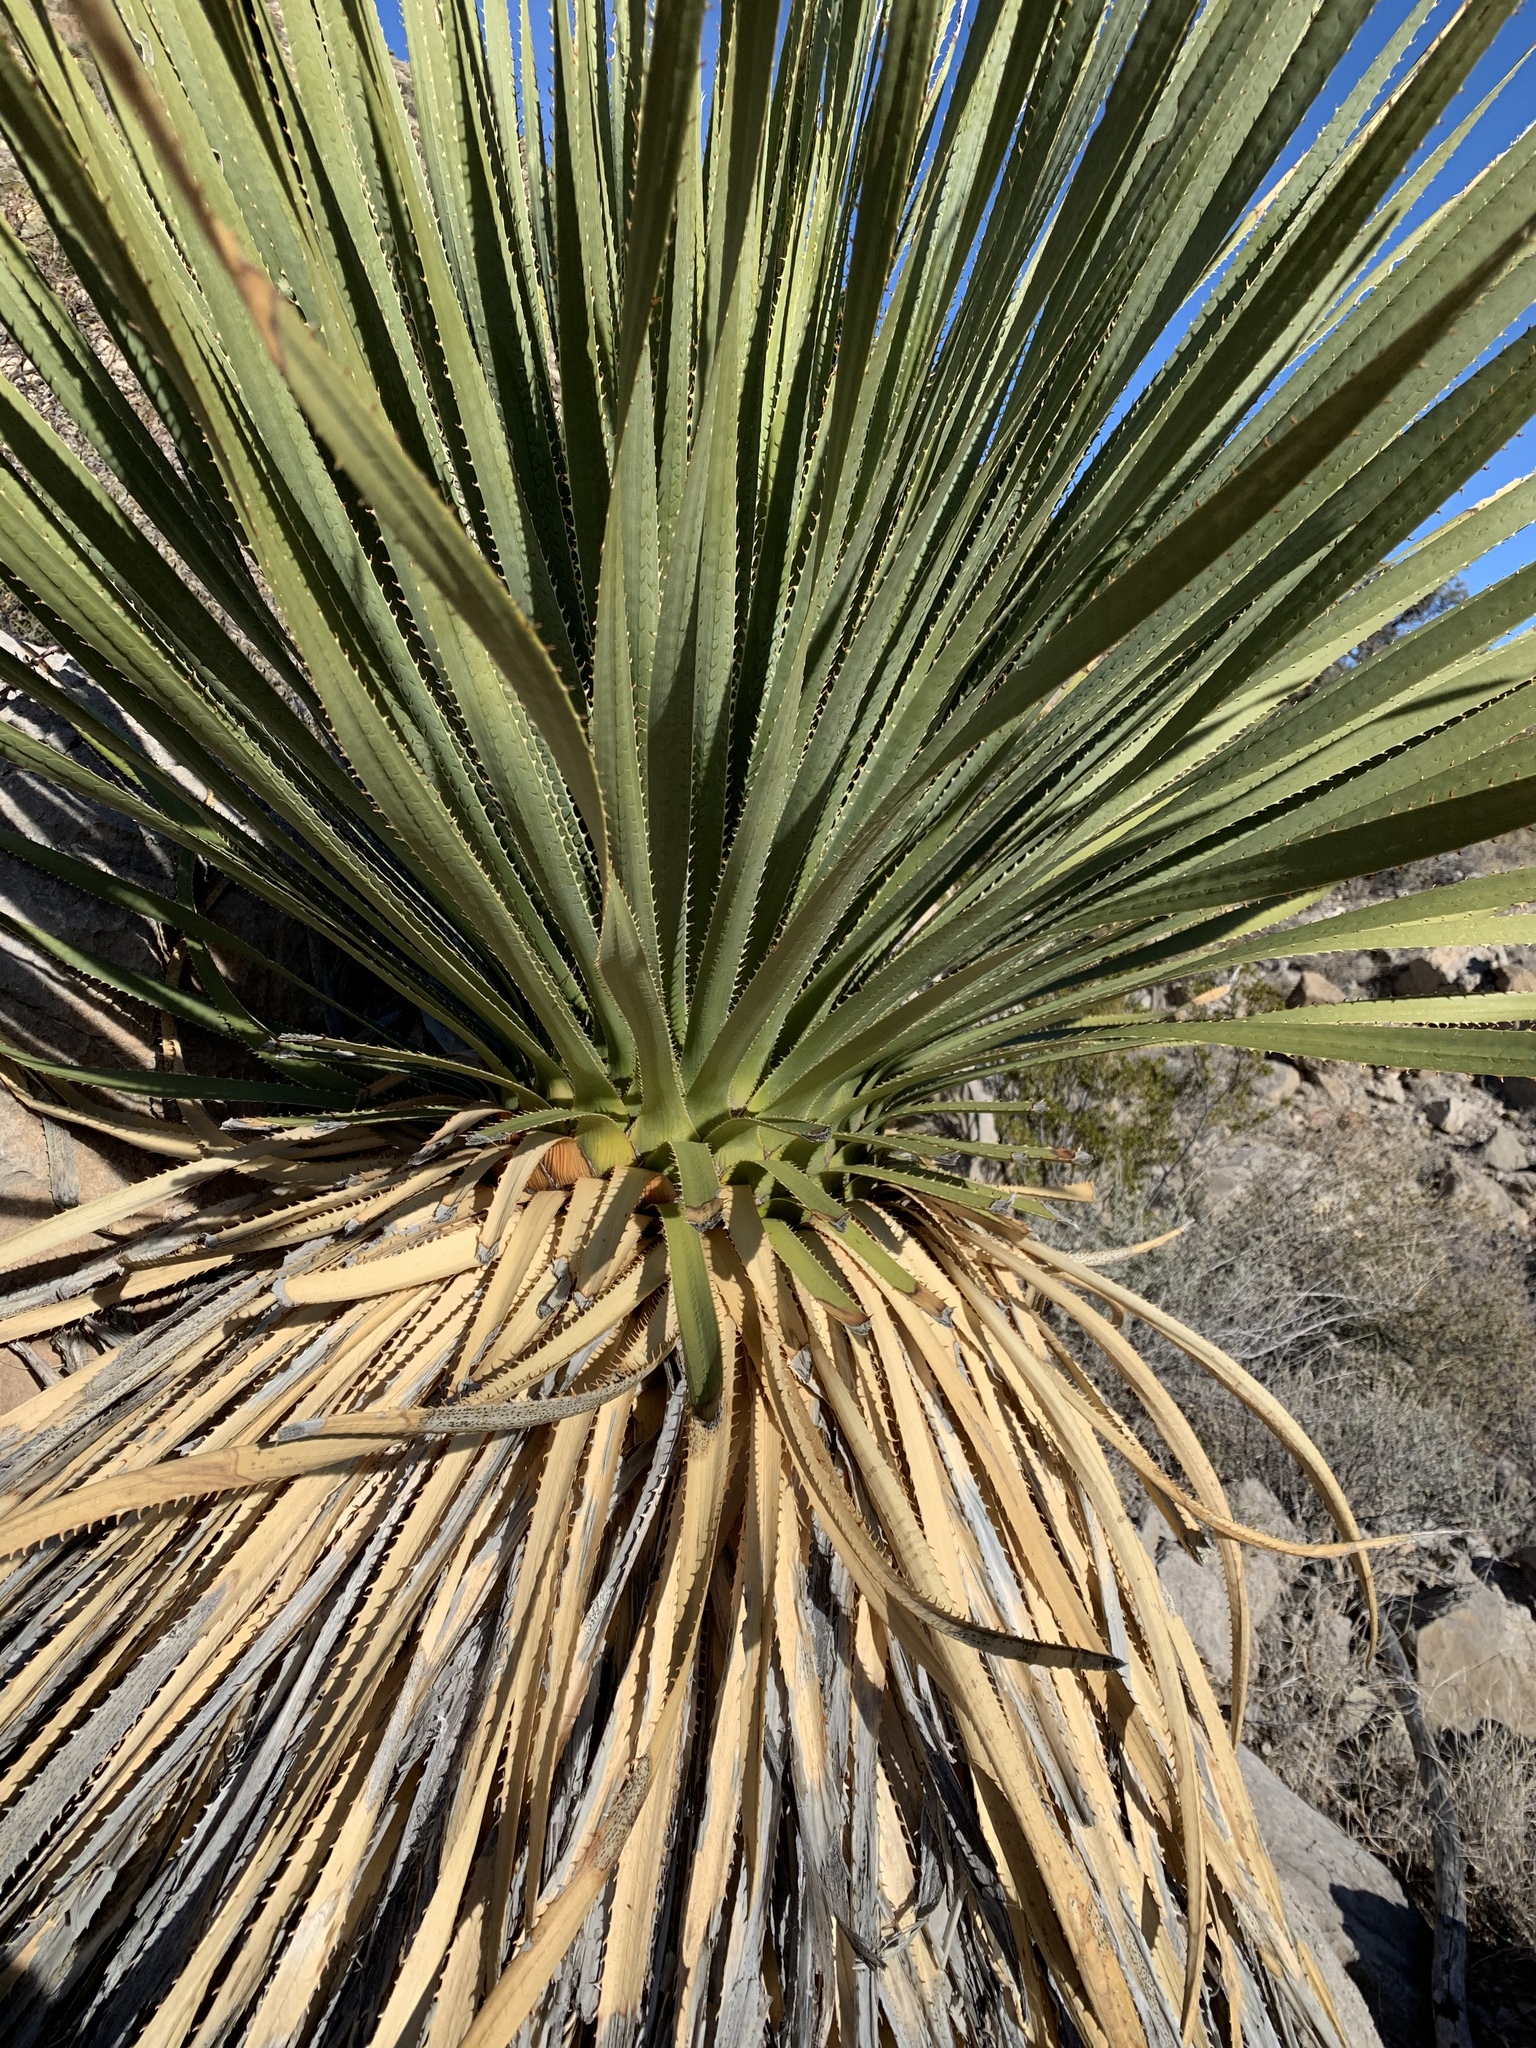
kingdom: Plantae
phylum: Tracheophyta
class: Liliopsida
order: Asparagales
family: Asparagaceae
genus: Dasylirion
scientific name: Dasylirion wheeleri
